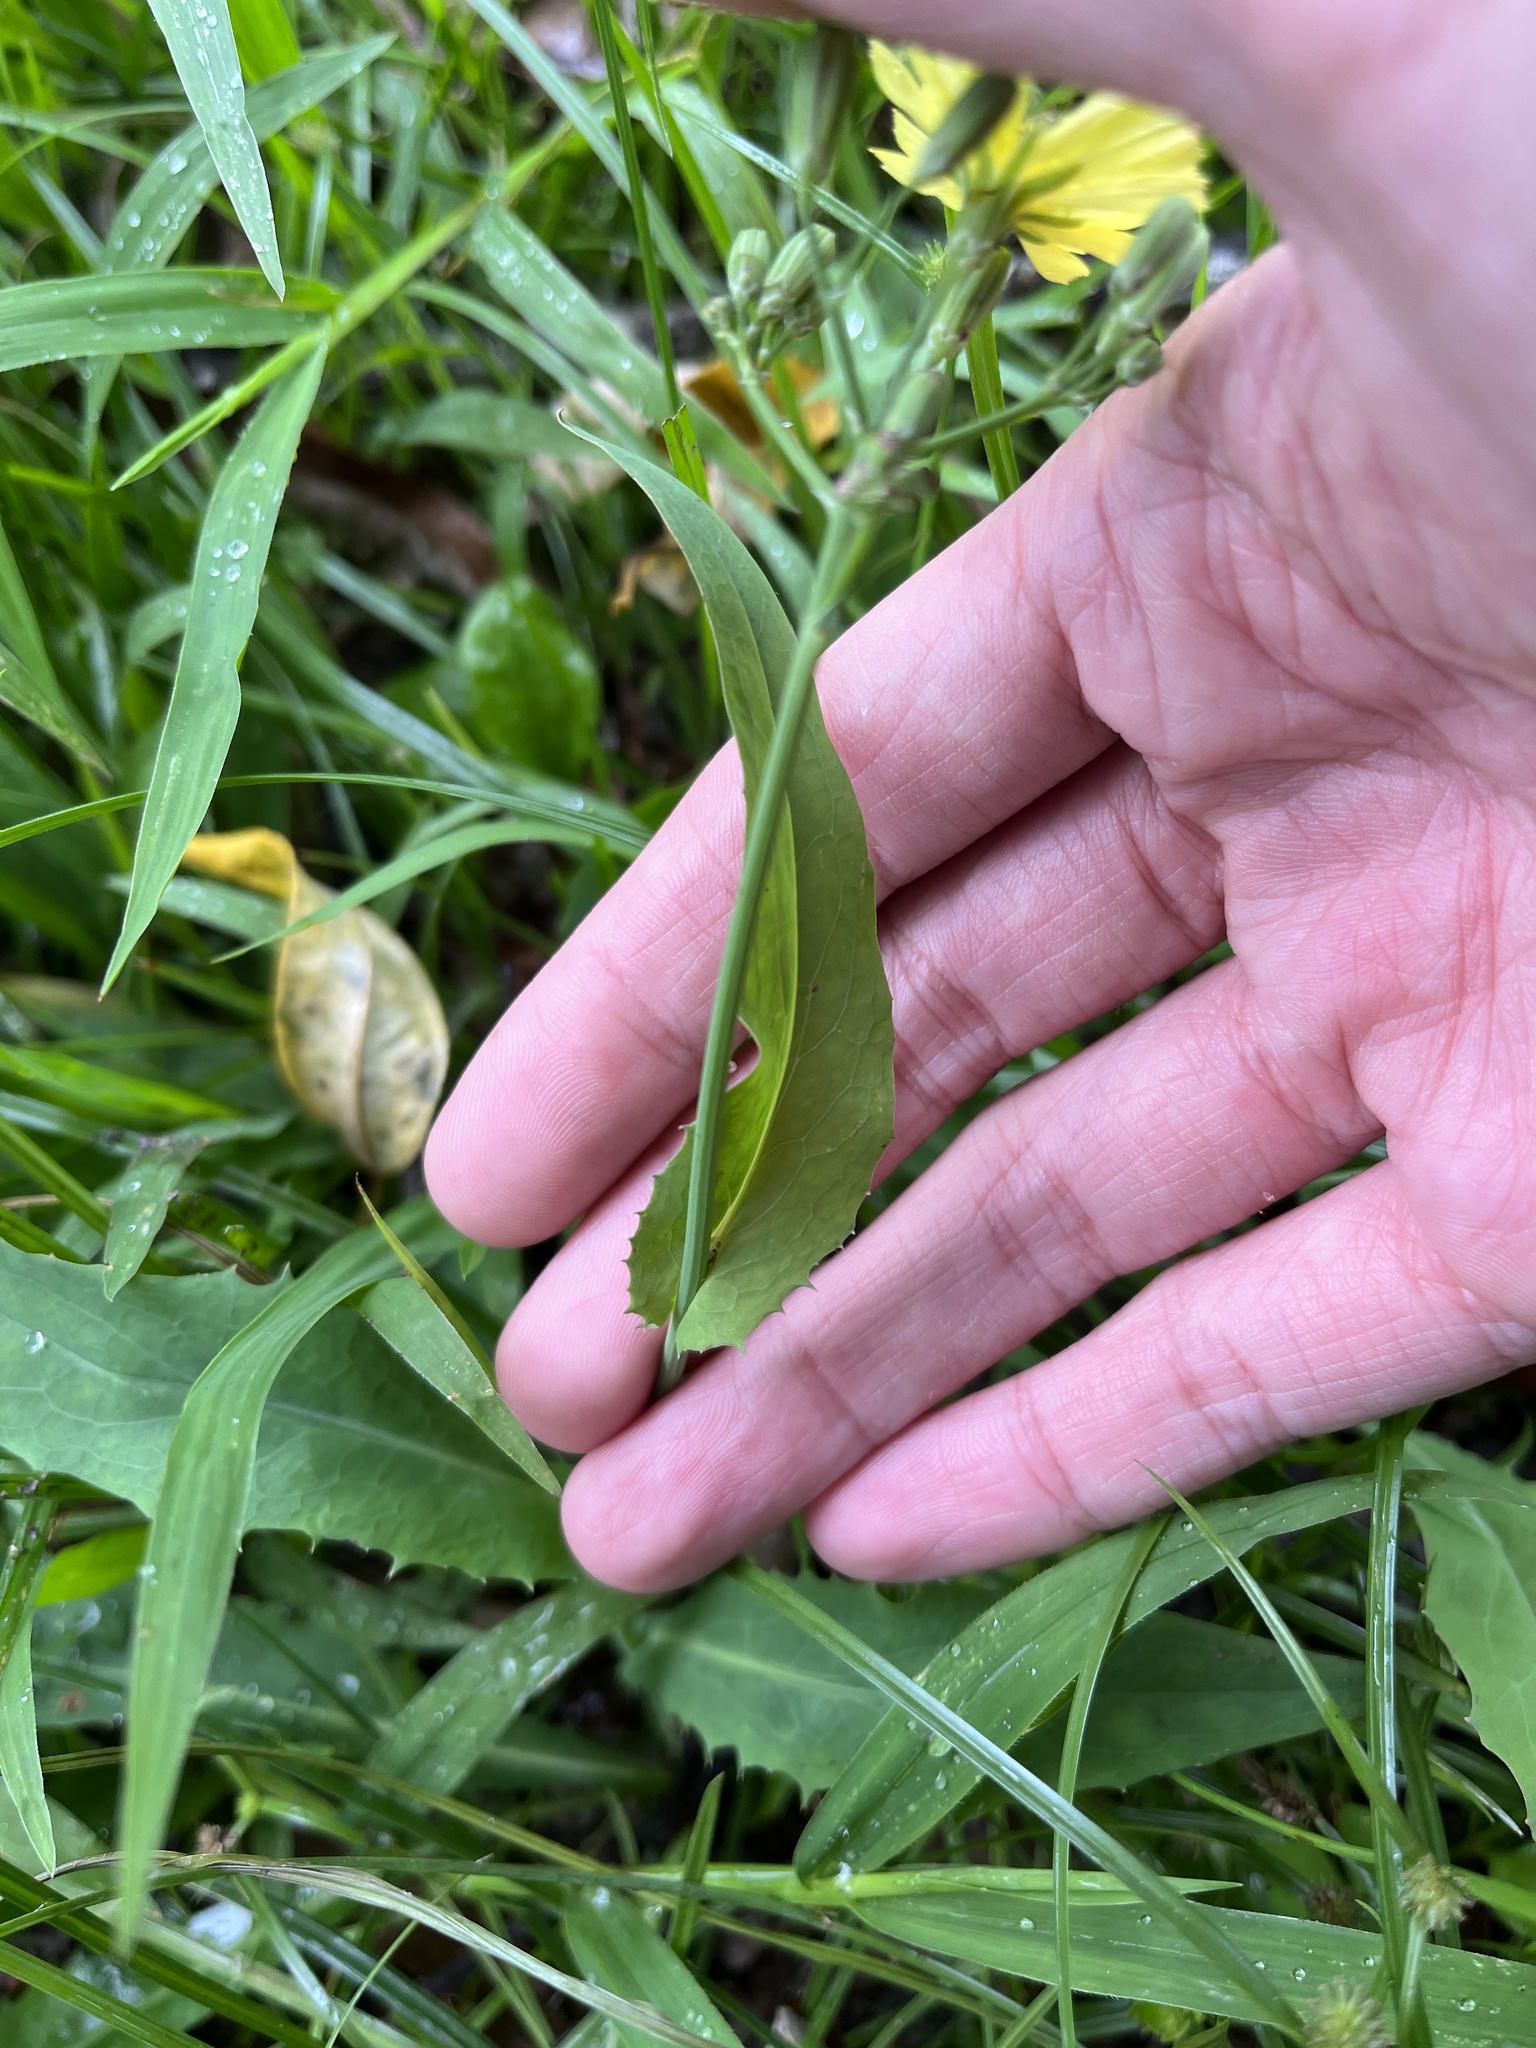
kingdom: Plantae
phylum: Tracheophyta
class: Magnoliopsida
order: Asterales
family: Asteraceae
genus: Ixeris
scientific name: Ixeris chinensis
